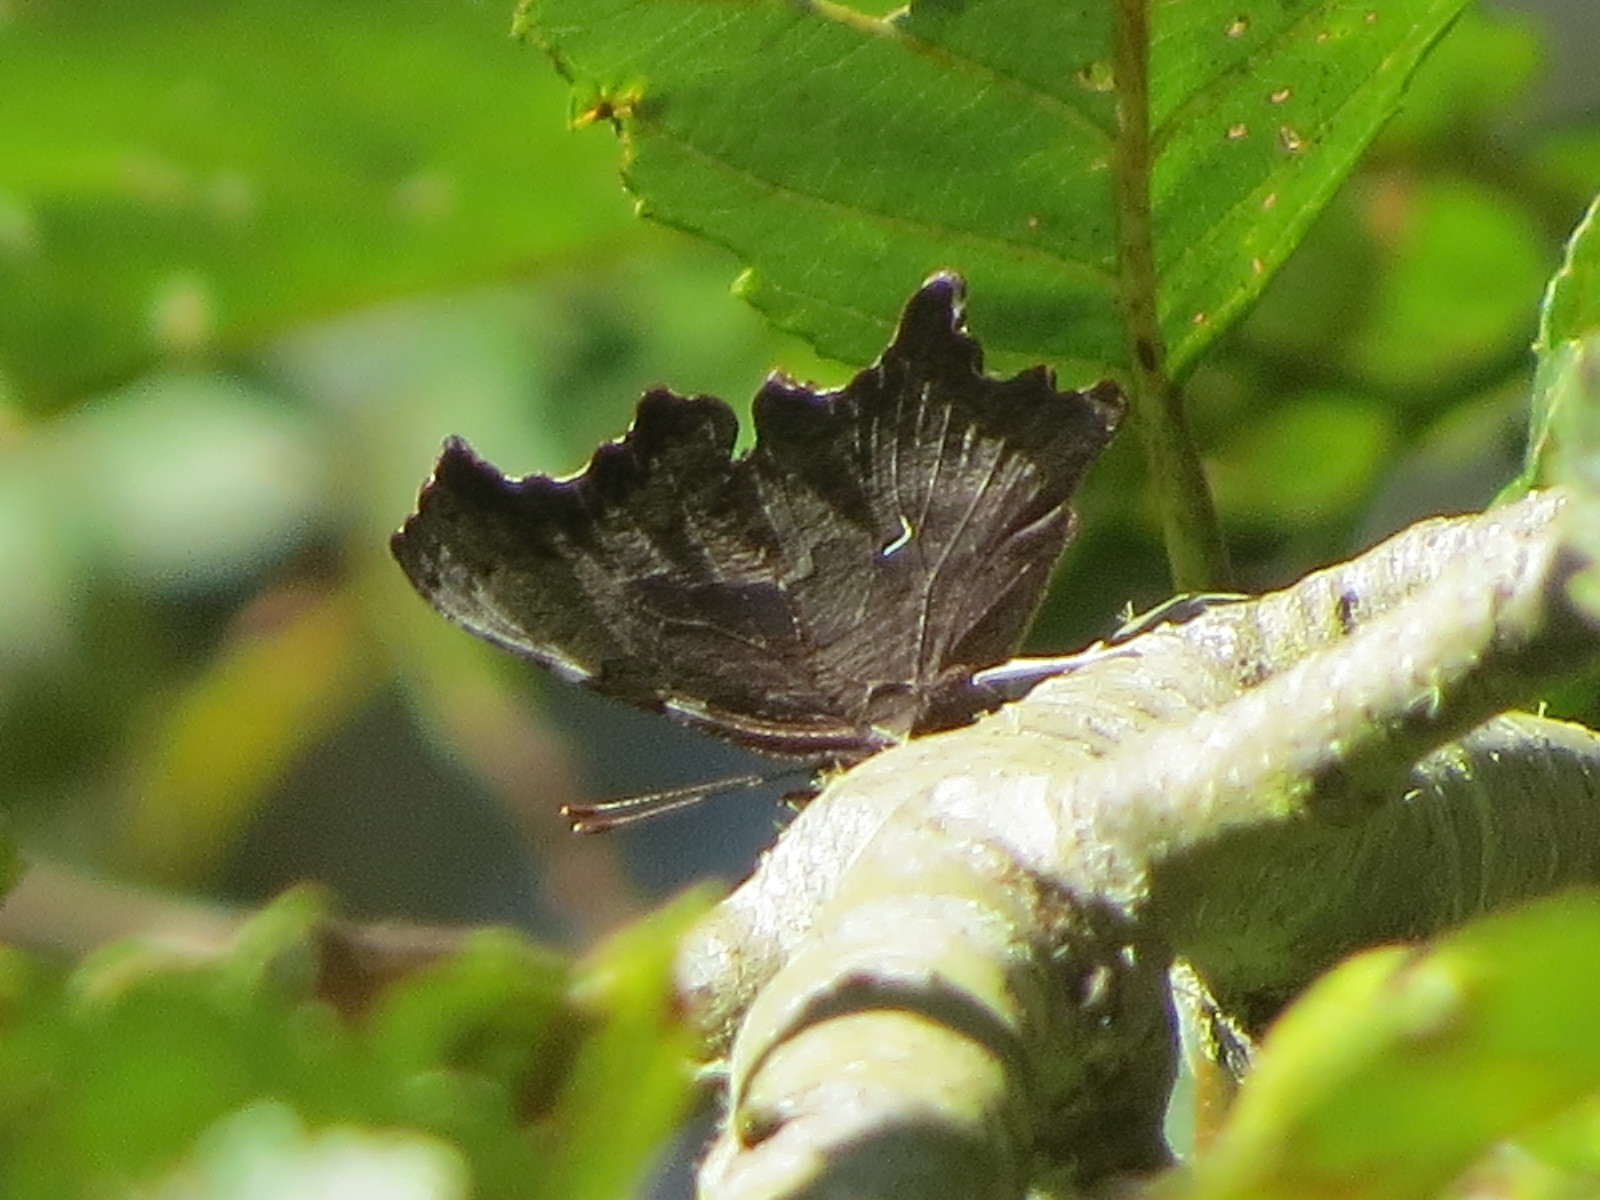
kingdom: Animalia
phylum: Arthropoda
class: Insecta
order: Lepidoptera
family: Nymphalidae
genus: Polygonia
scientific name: Polygonia oreas
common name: Oreas comma
